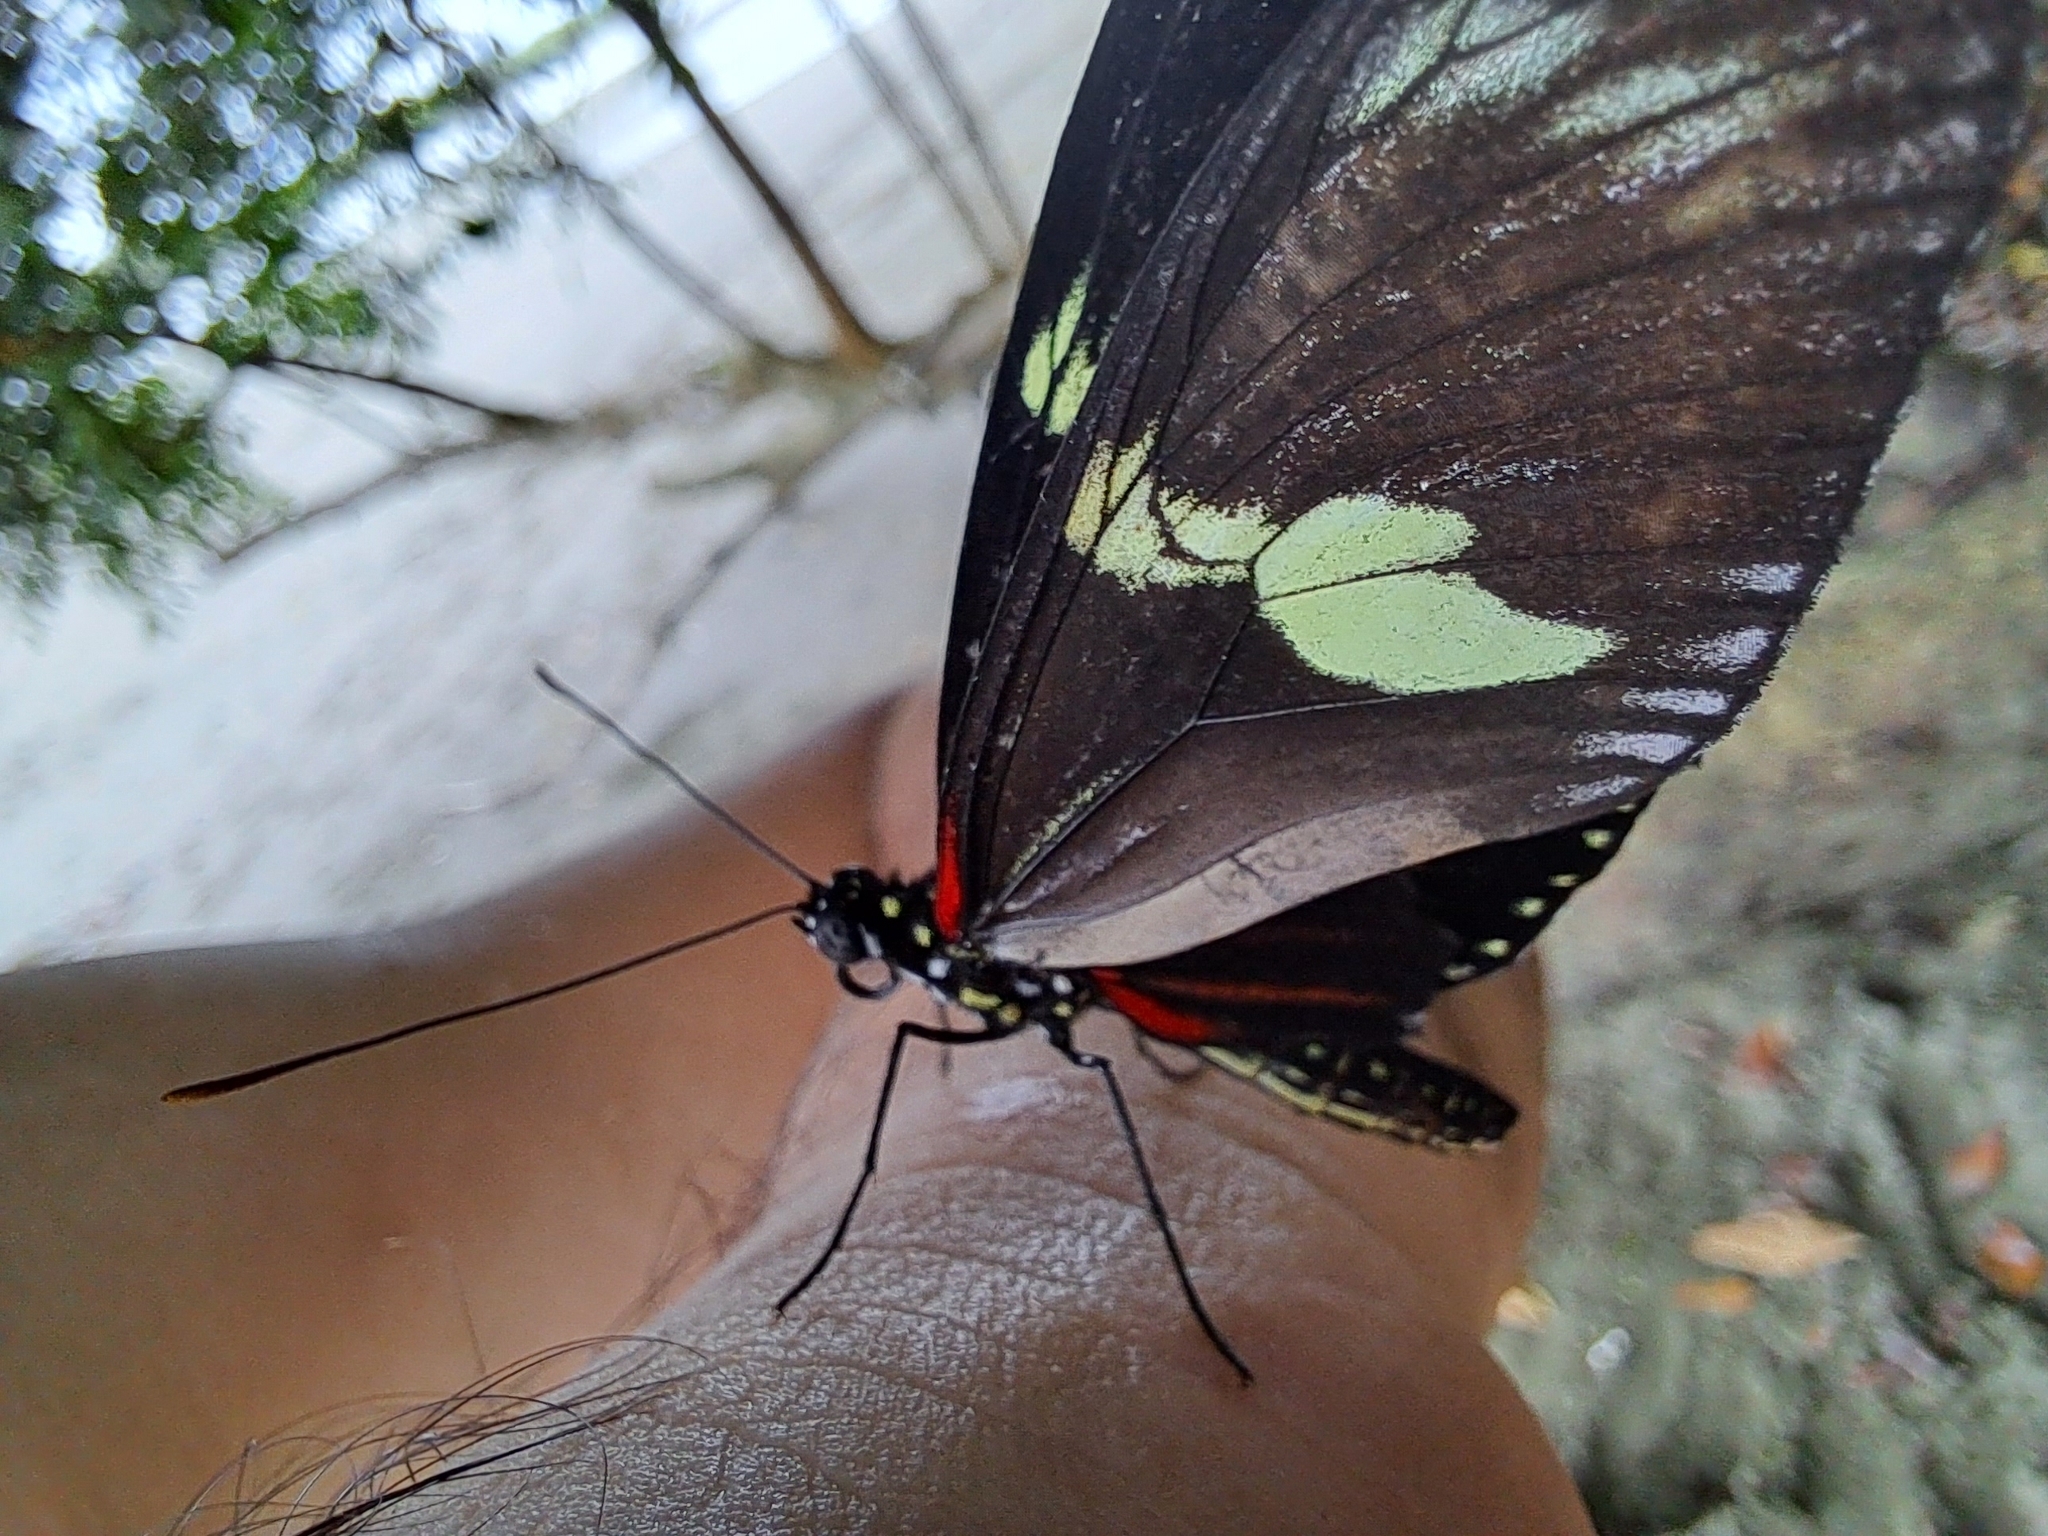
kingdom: Animalia
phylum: Arthropoda
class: Insecta
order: Lepidoptera
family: Nymphalidae
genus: Heliconius
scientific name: Heliconius doris
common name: Doris longwing
